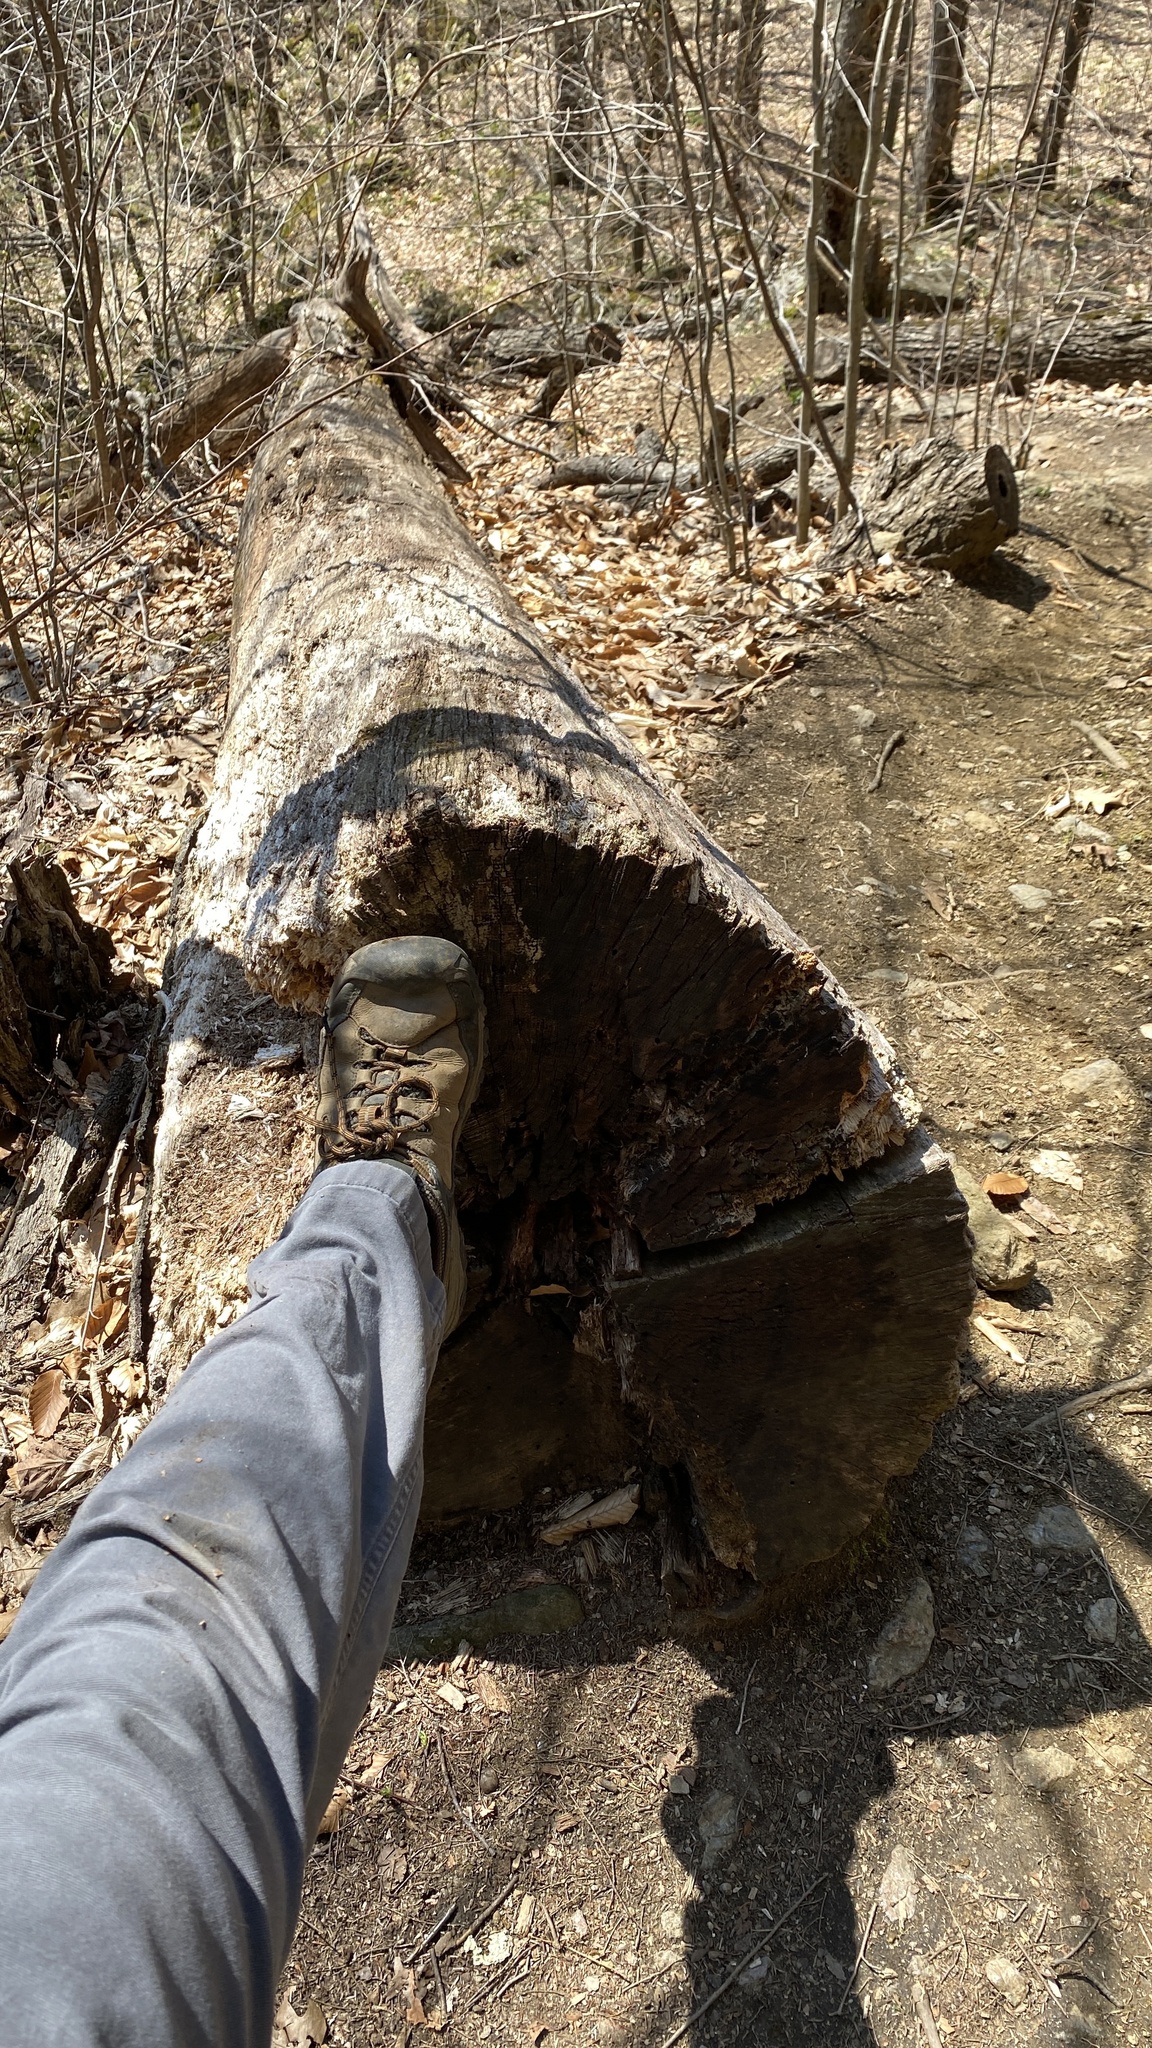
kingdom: Plantae
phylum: Tracheophyta
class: Magnoliopsida
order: Fagales
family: Fagaceae
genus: Quercus
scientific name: Quercus rubra
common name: Red oak
